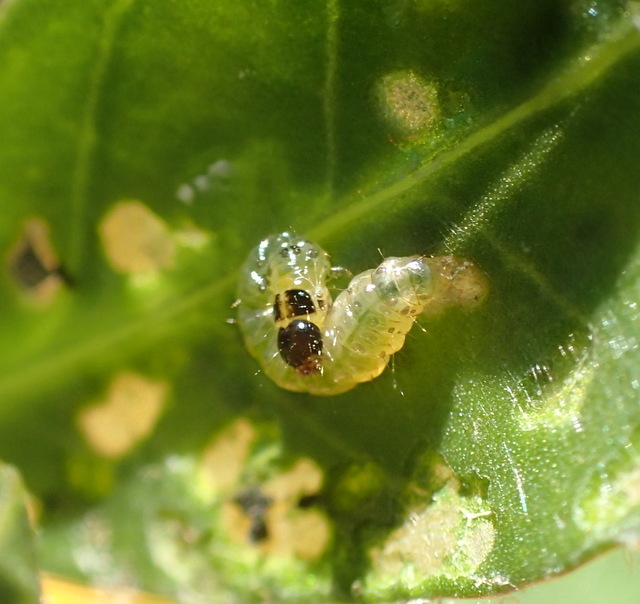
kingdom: Animalia
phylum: Arthropoda
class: Insecta
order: Lepidoptera
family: Crambidae
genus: Herpetogramma
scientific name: Herpetogramma bipunctalis
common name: Southern beet webworm
